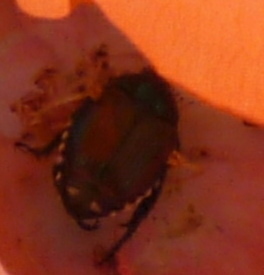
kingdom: Animalia
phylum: Arthropoda
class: Insecta
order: Coleoptera
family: Scarabaeidae
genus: Popillia
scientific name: Popillia japonica
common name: Japanese beetle
